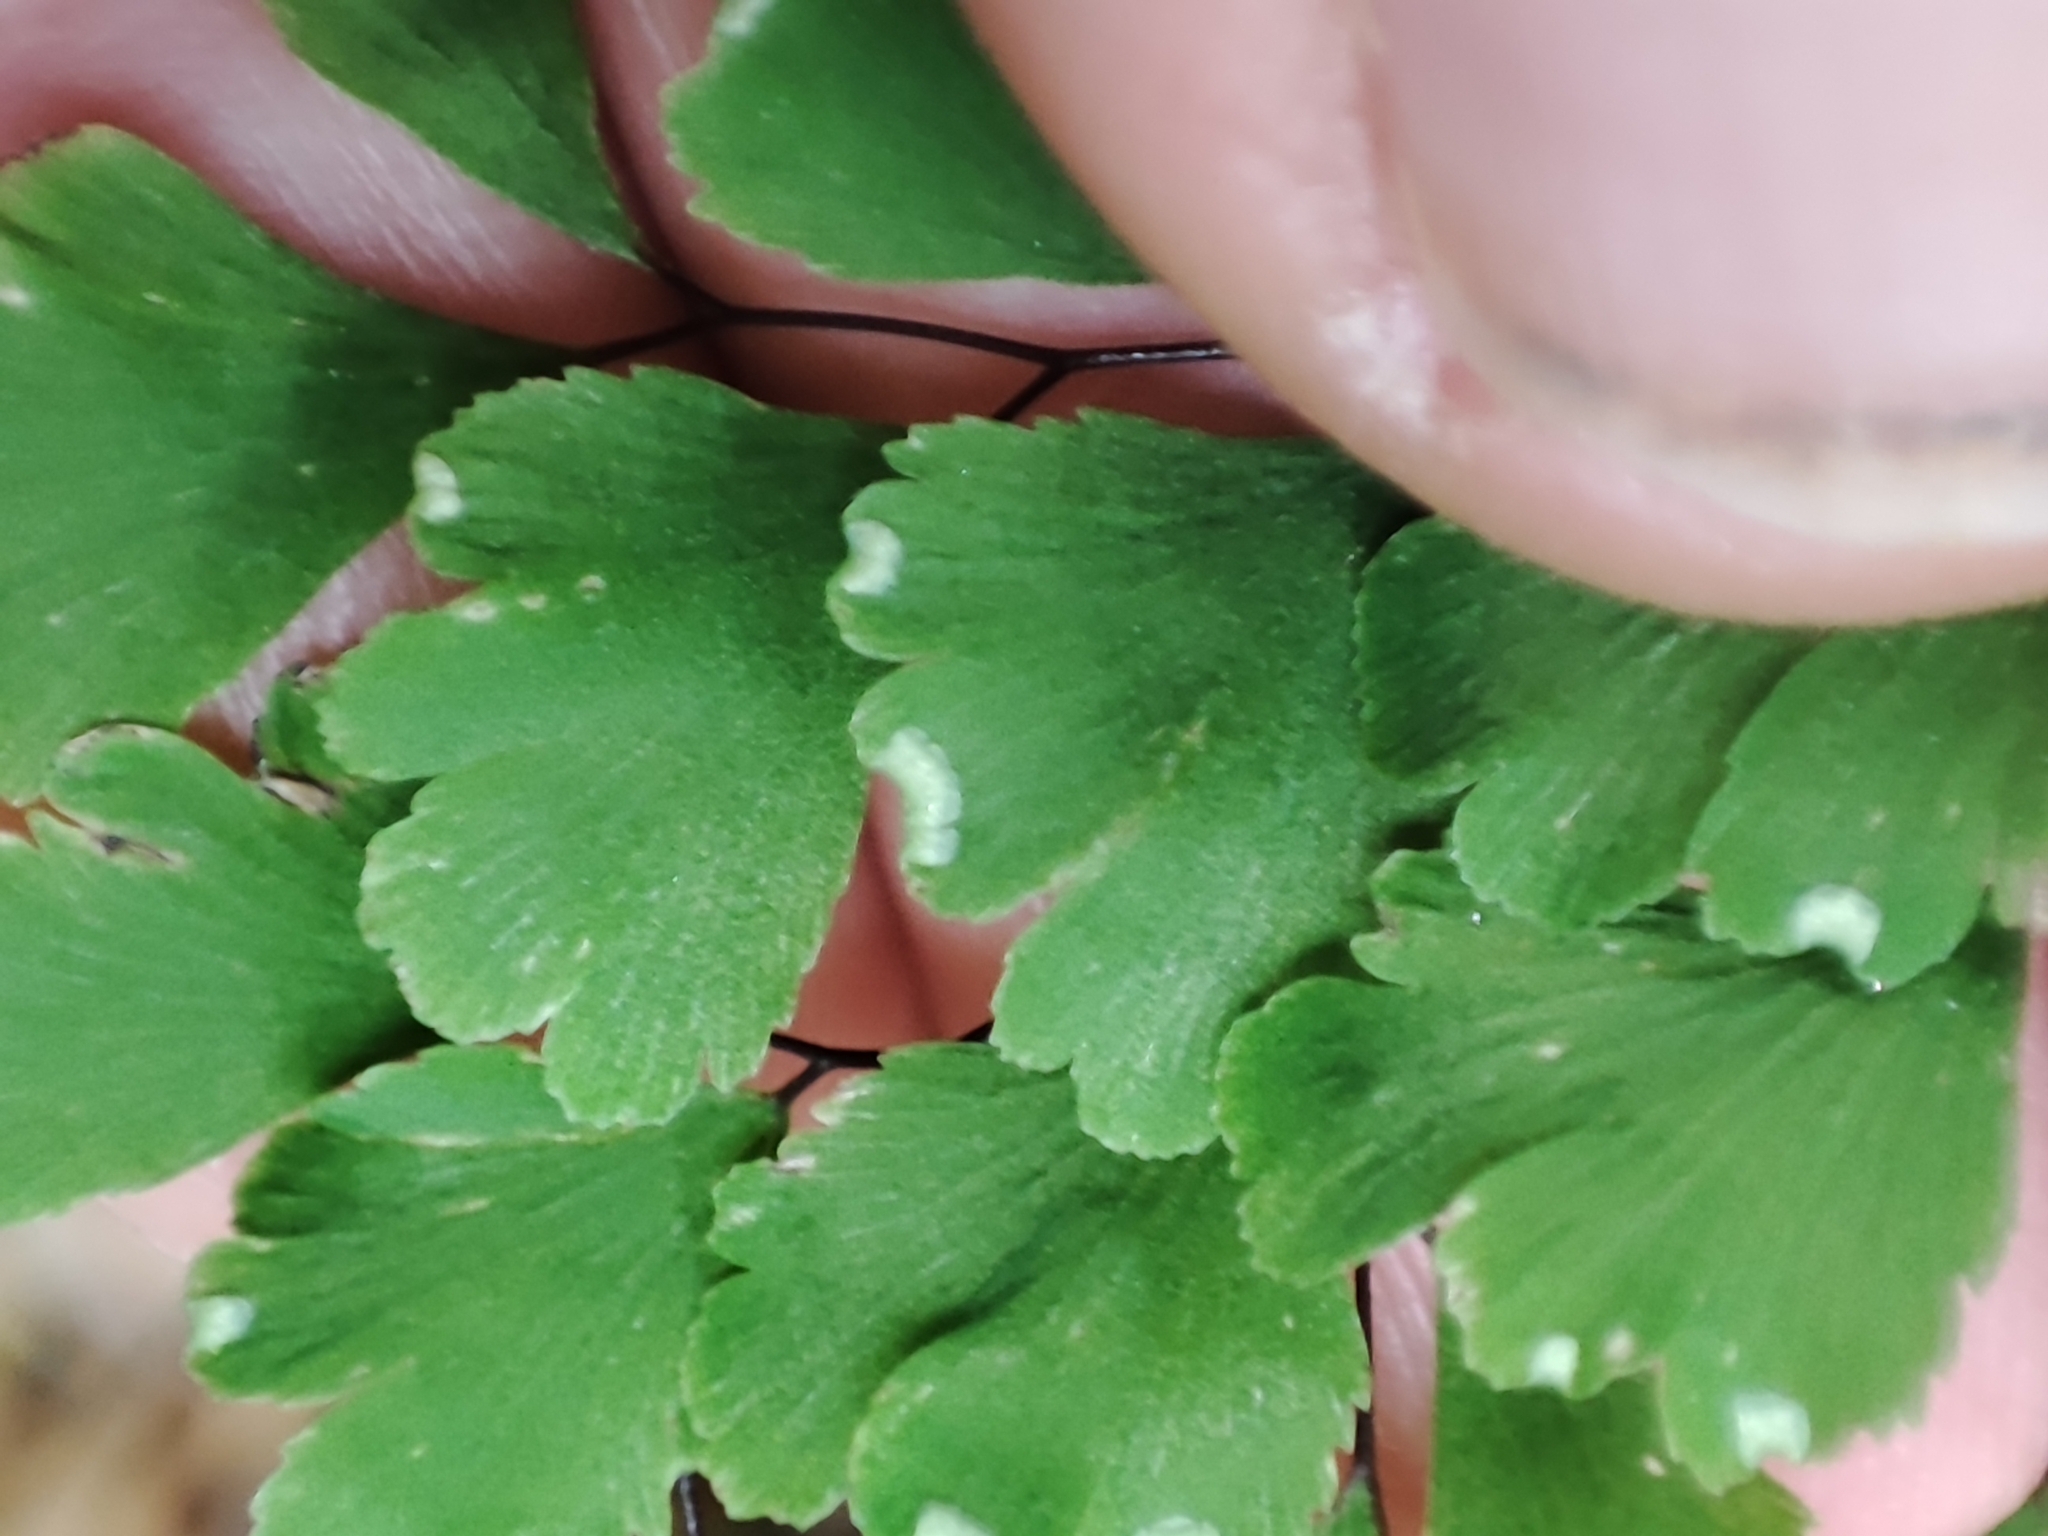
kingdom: Plantae
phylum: Tracheophyta
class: Polypodiopsida
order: Polypodiales
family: Pteridaceae
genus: Adiantum
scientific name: Adiantum capillus-veneris
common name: Maidenhair fern
